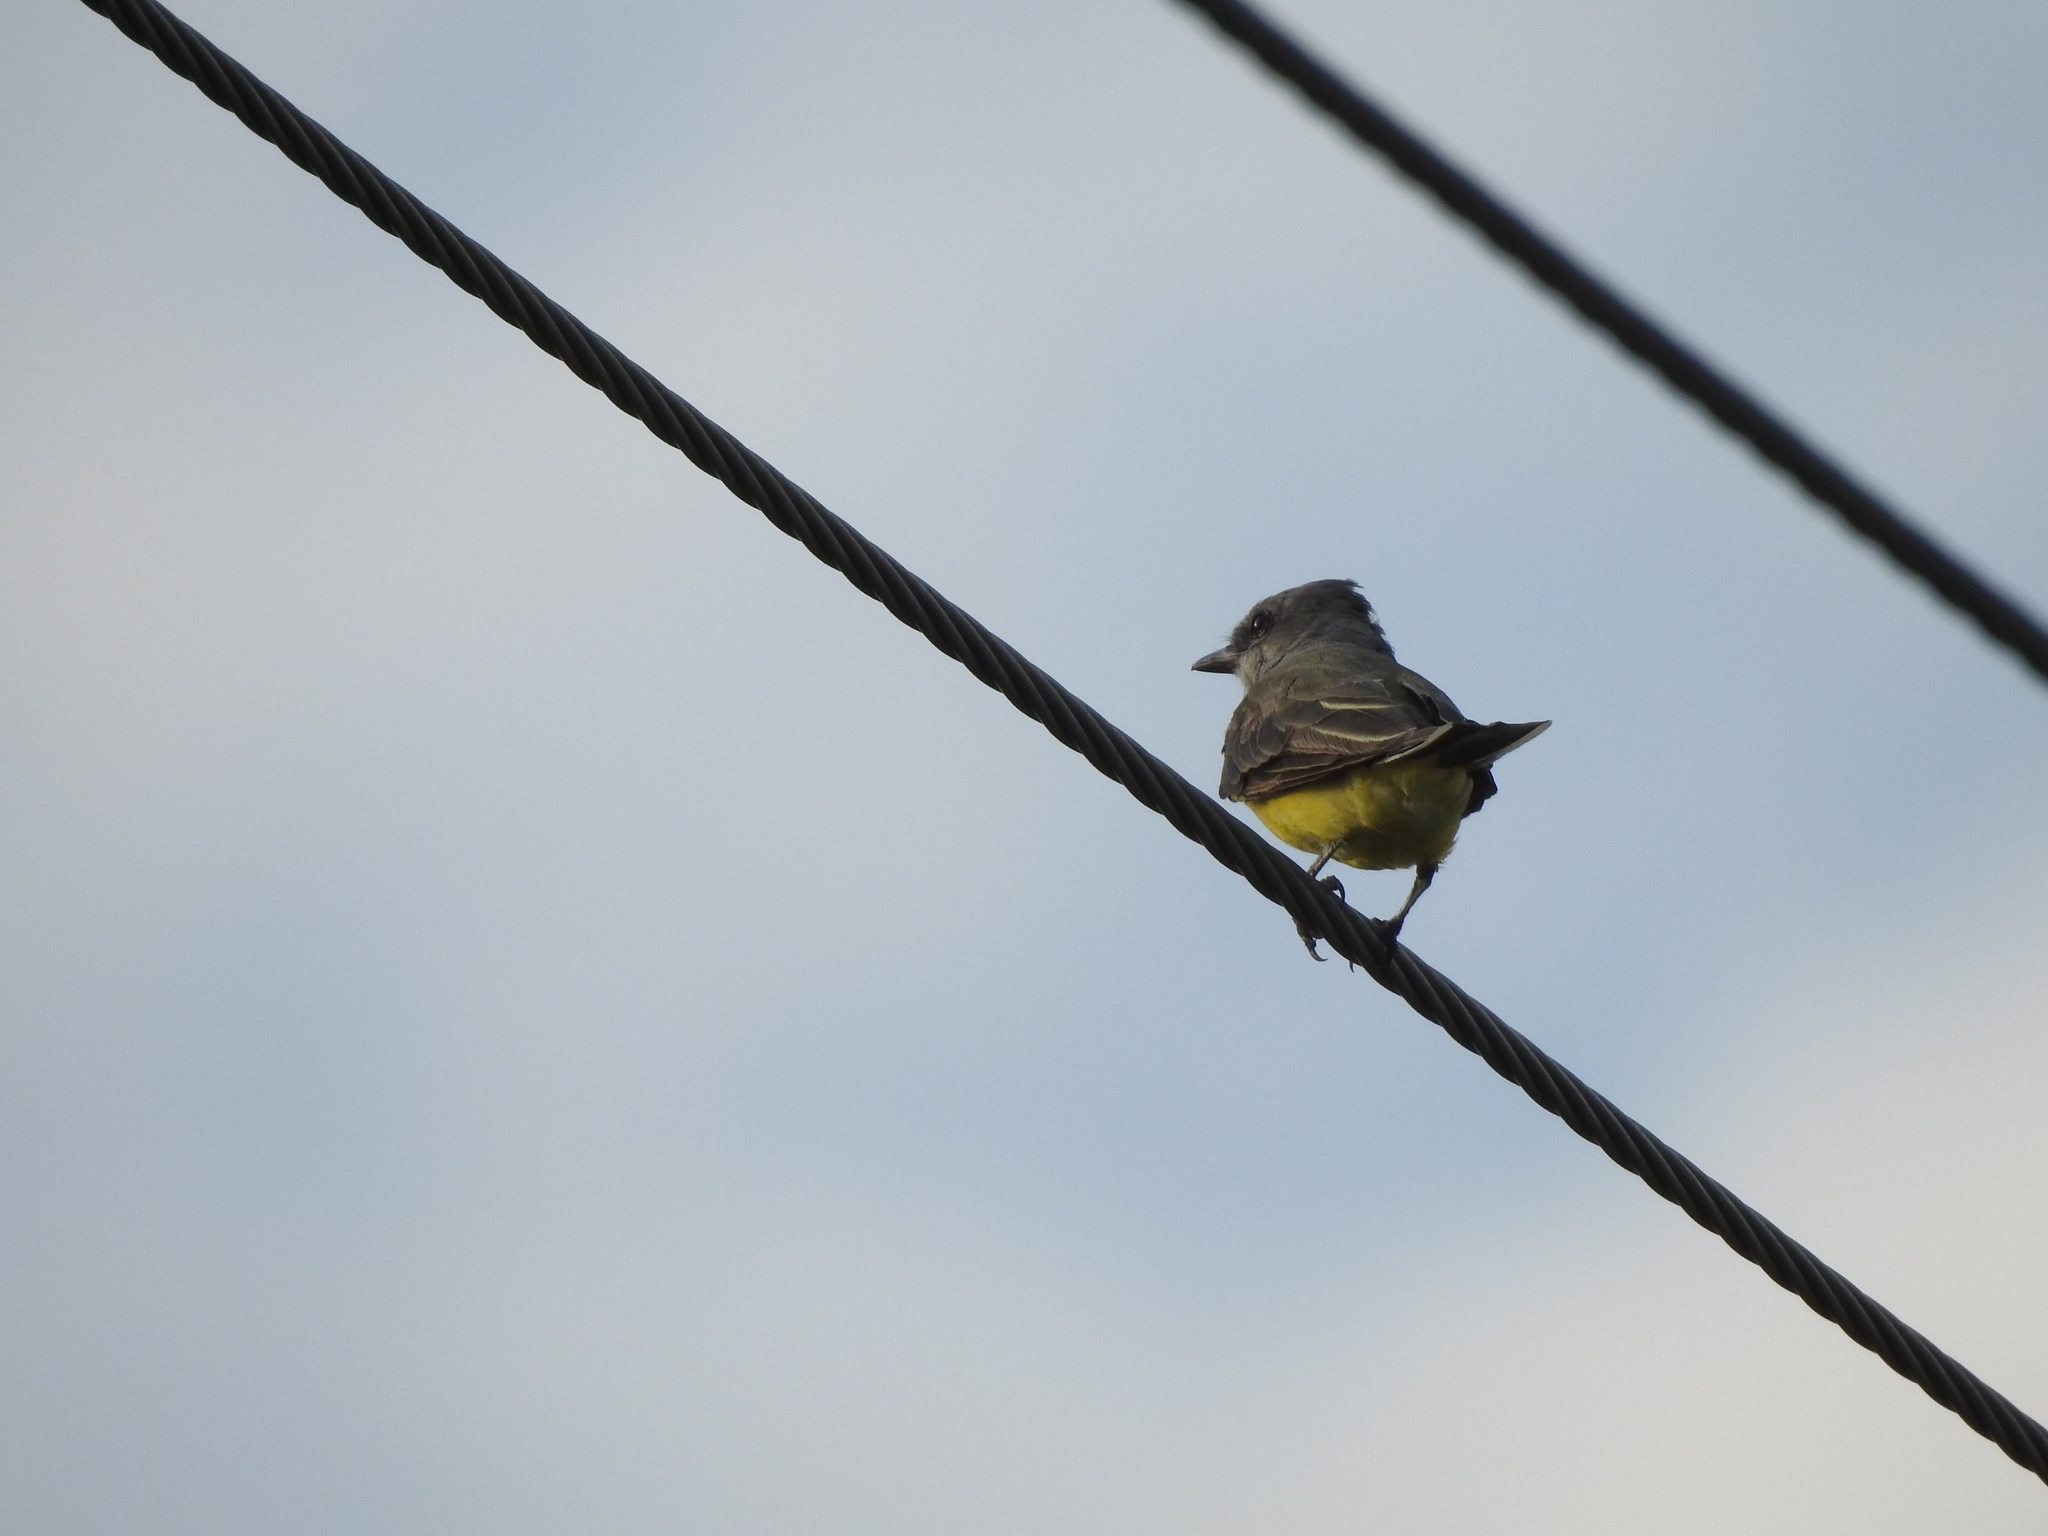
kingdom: Animalia
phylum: Chordata
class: Aves
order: Passeriformes
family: Tyrannidae
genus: Tyrannus
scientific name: Tyrannus verticalis
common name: Western kingbird
